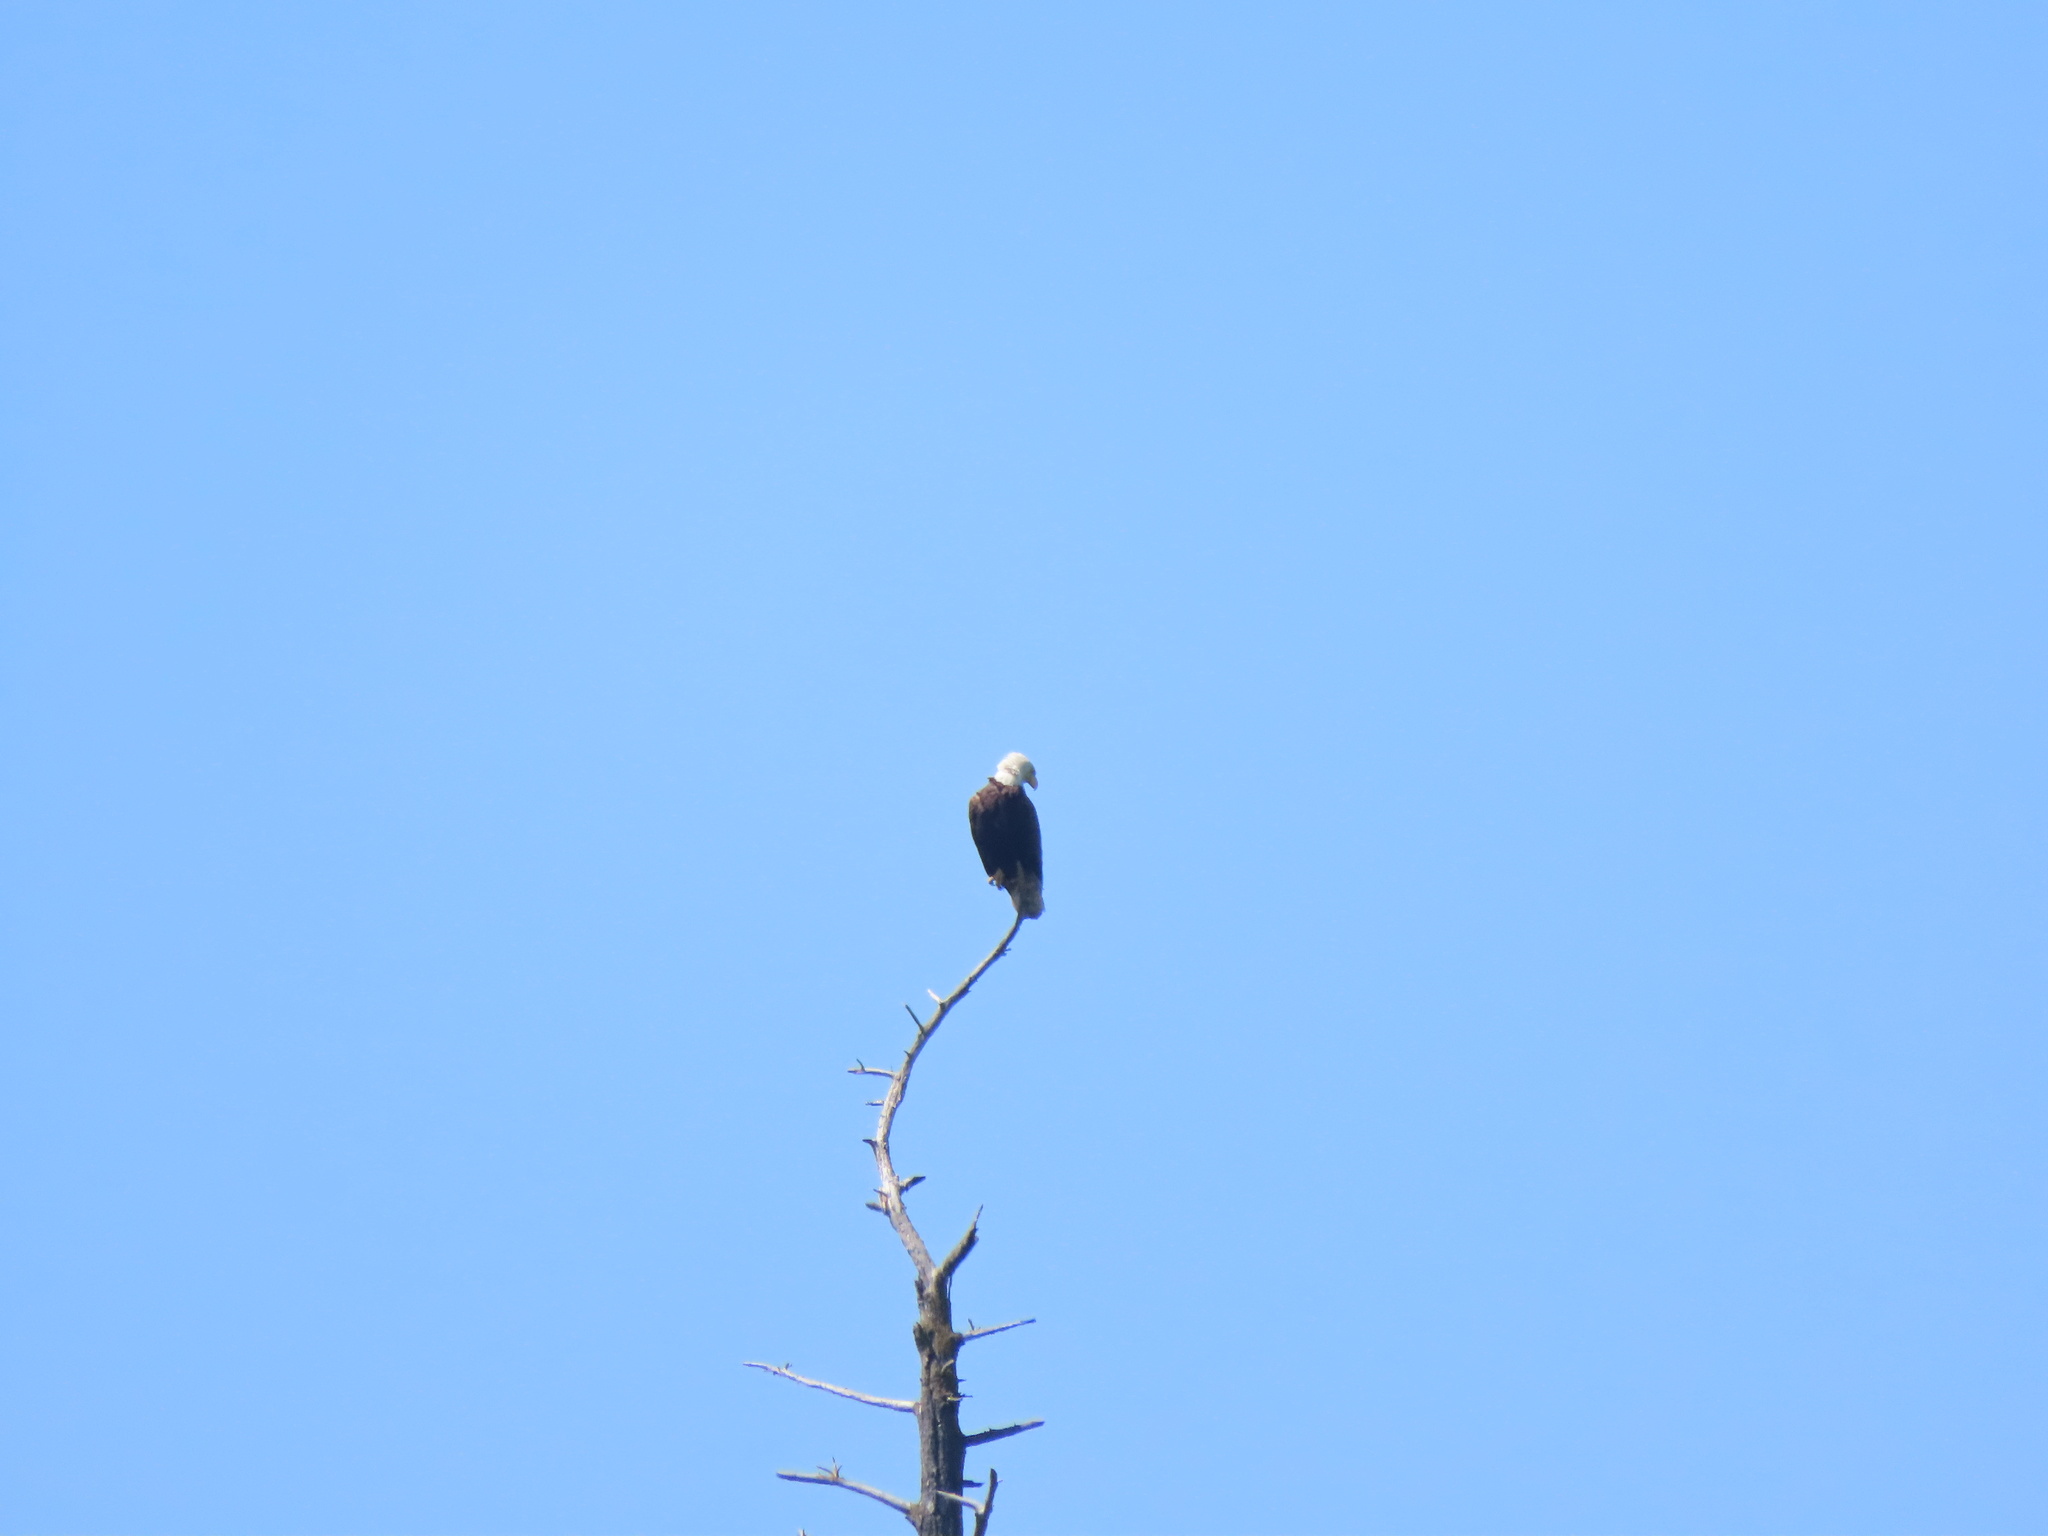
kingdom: Animalia
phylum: Chordata
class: Aves
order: Accipitriformes
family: Accipitridae
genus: Haliaeetus
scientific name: Haliaeetus leucocephalus
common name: Bald eagle
